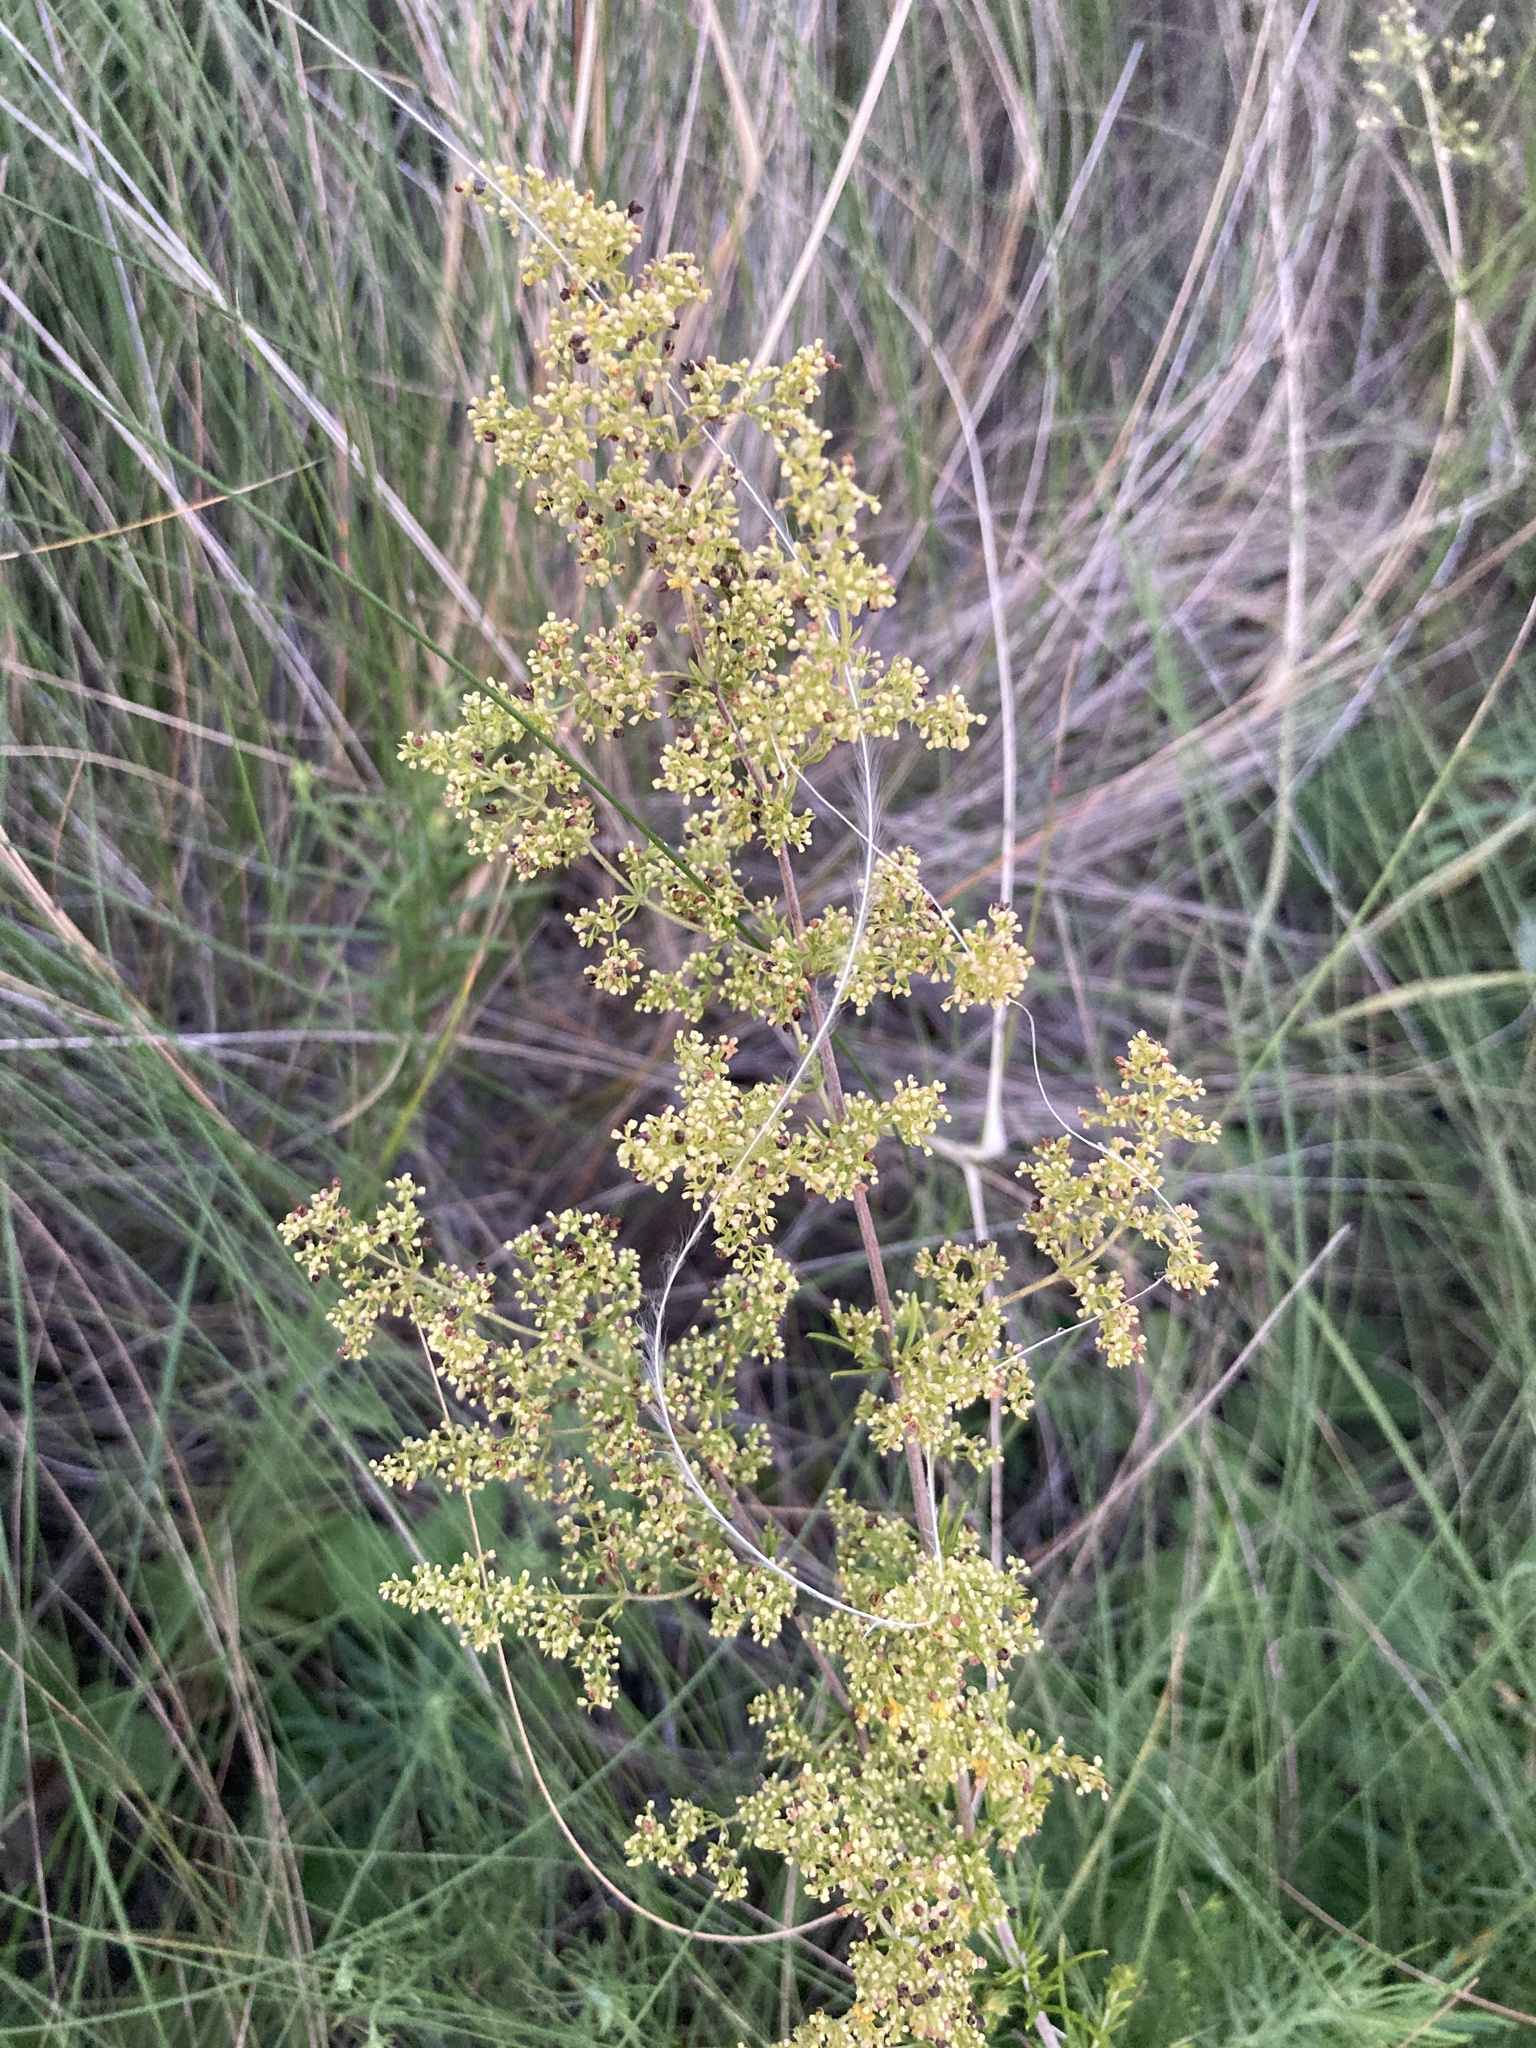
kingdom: Plantae
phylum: Tracheophyta
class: Magnoliopsida
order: Gentianales
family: Rubiaceae
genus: Galium
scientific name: Galium verum
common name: Lady's bedstraw
